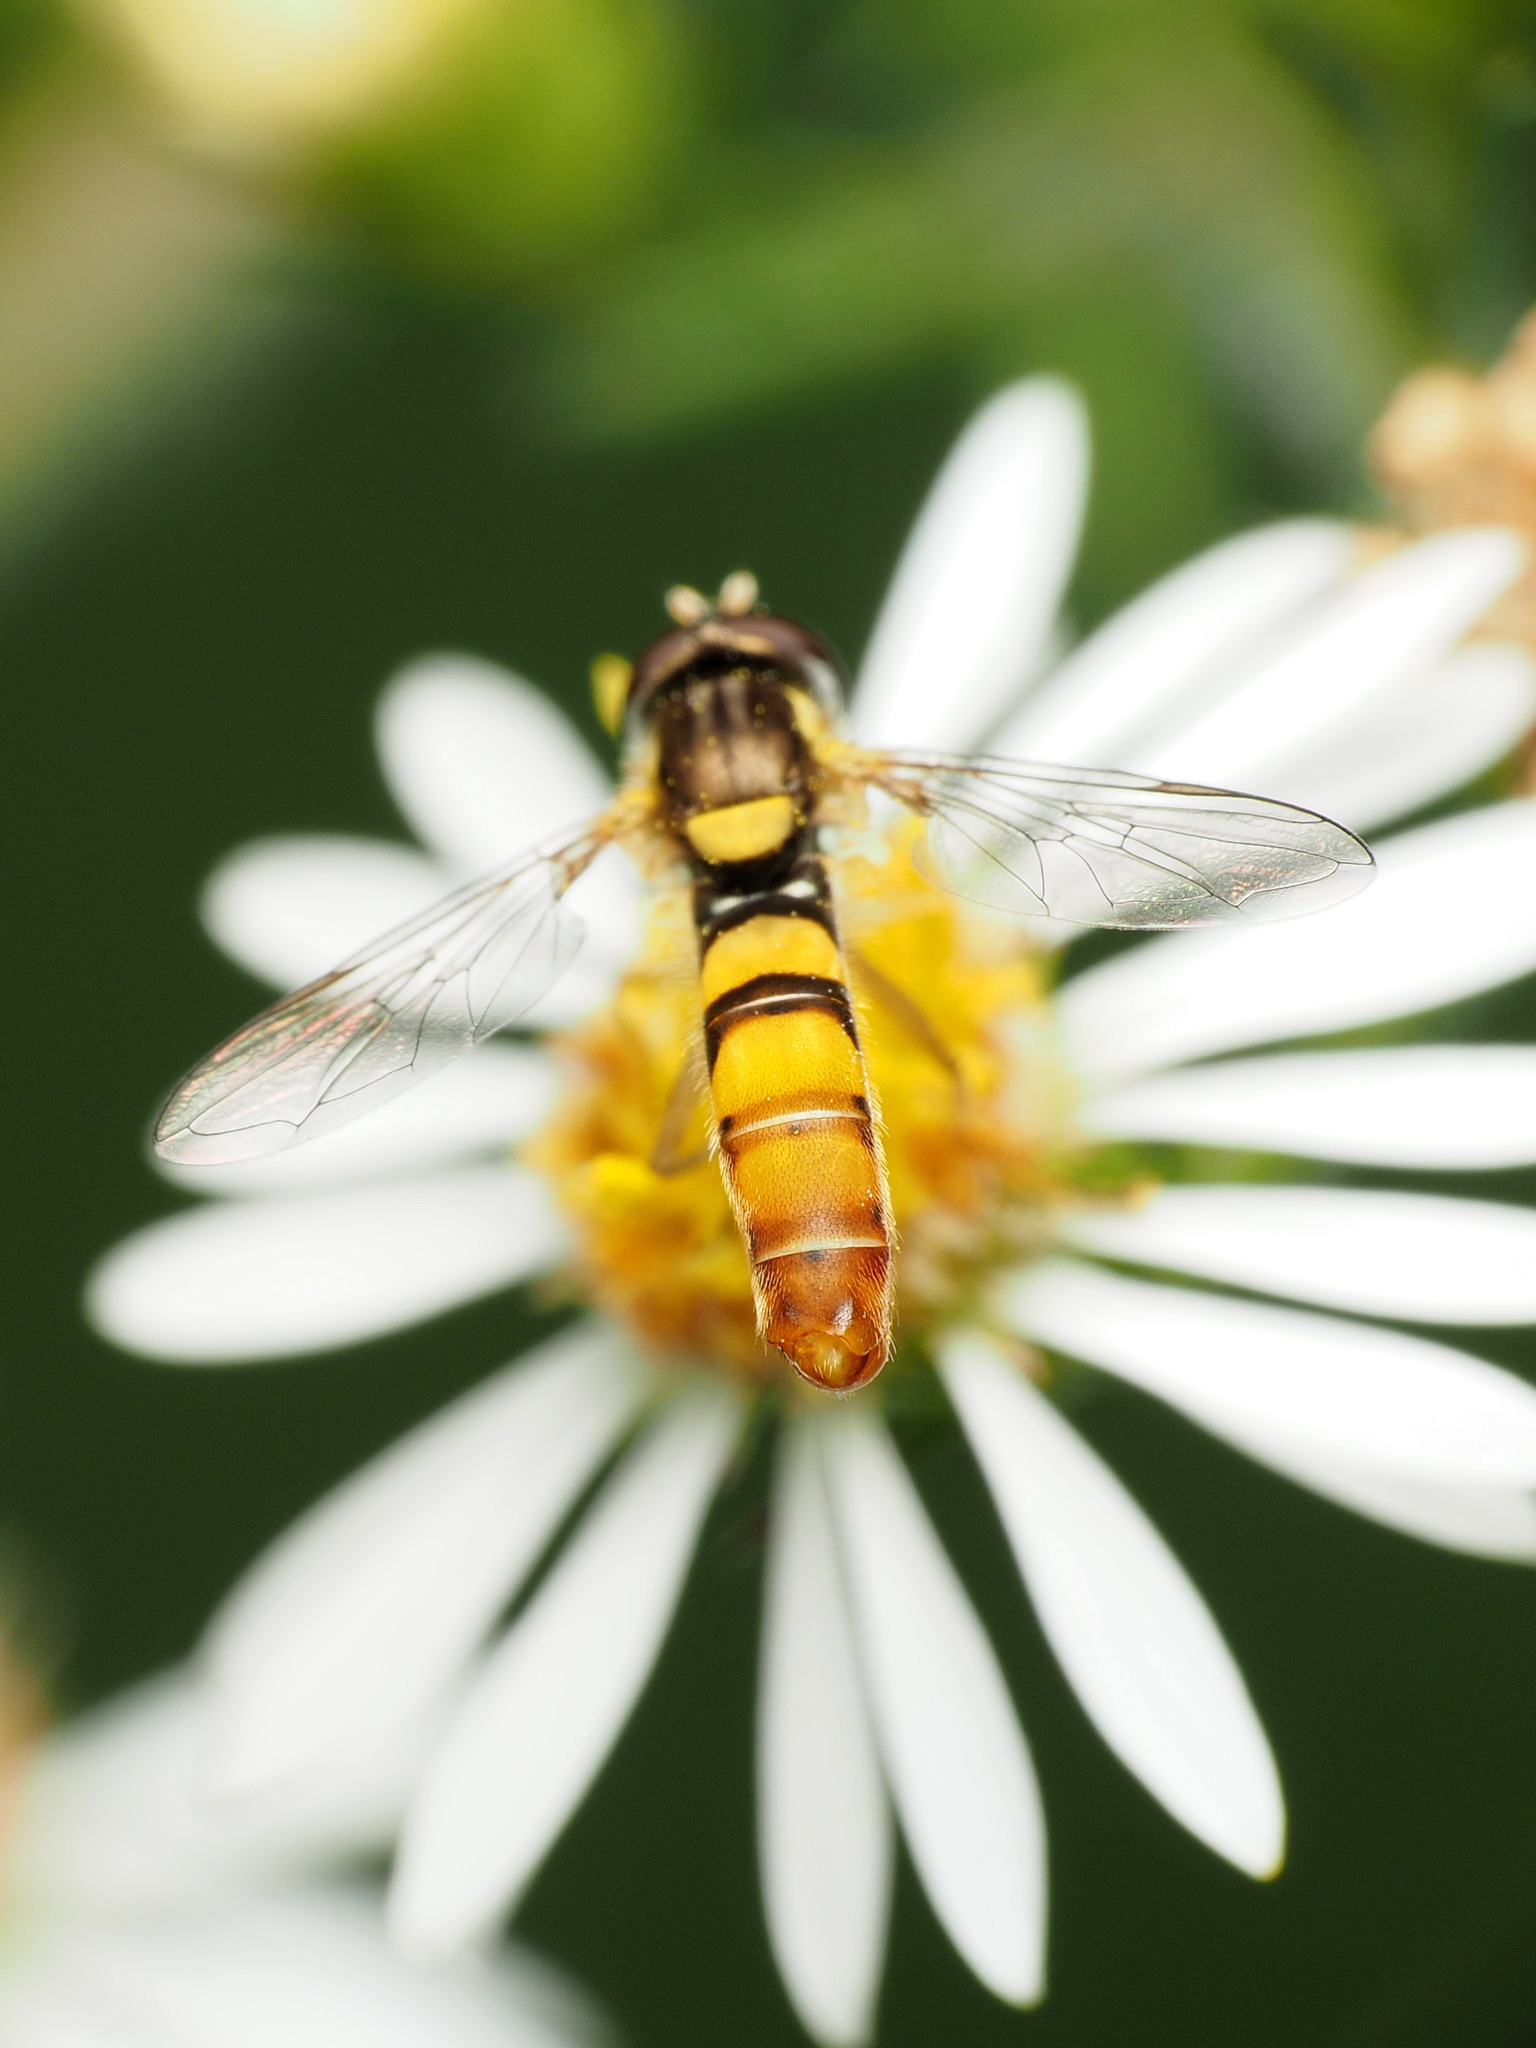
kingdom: Animalia
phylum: Arthropoda
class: Insecta
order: Diptera
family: Syrphidae
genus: Sphaerophoria
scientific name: Sphaerophoria contigua
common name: Tufted globetail
